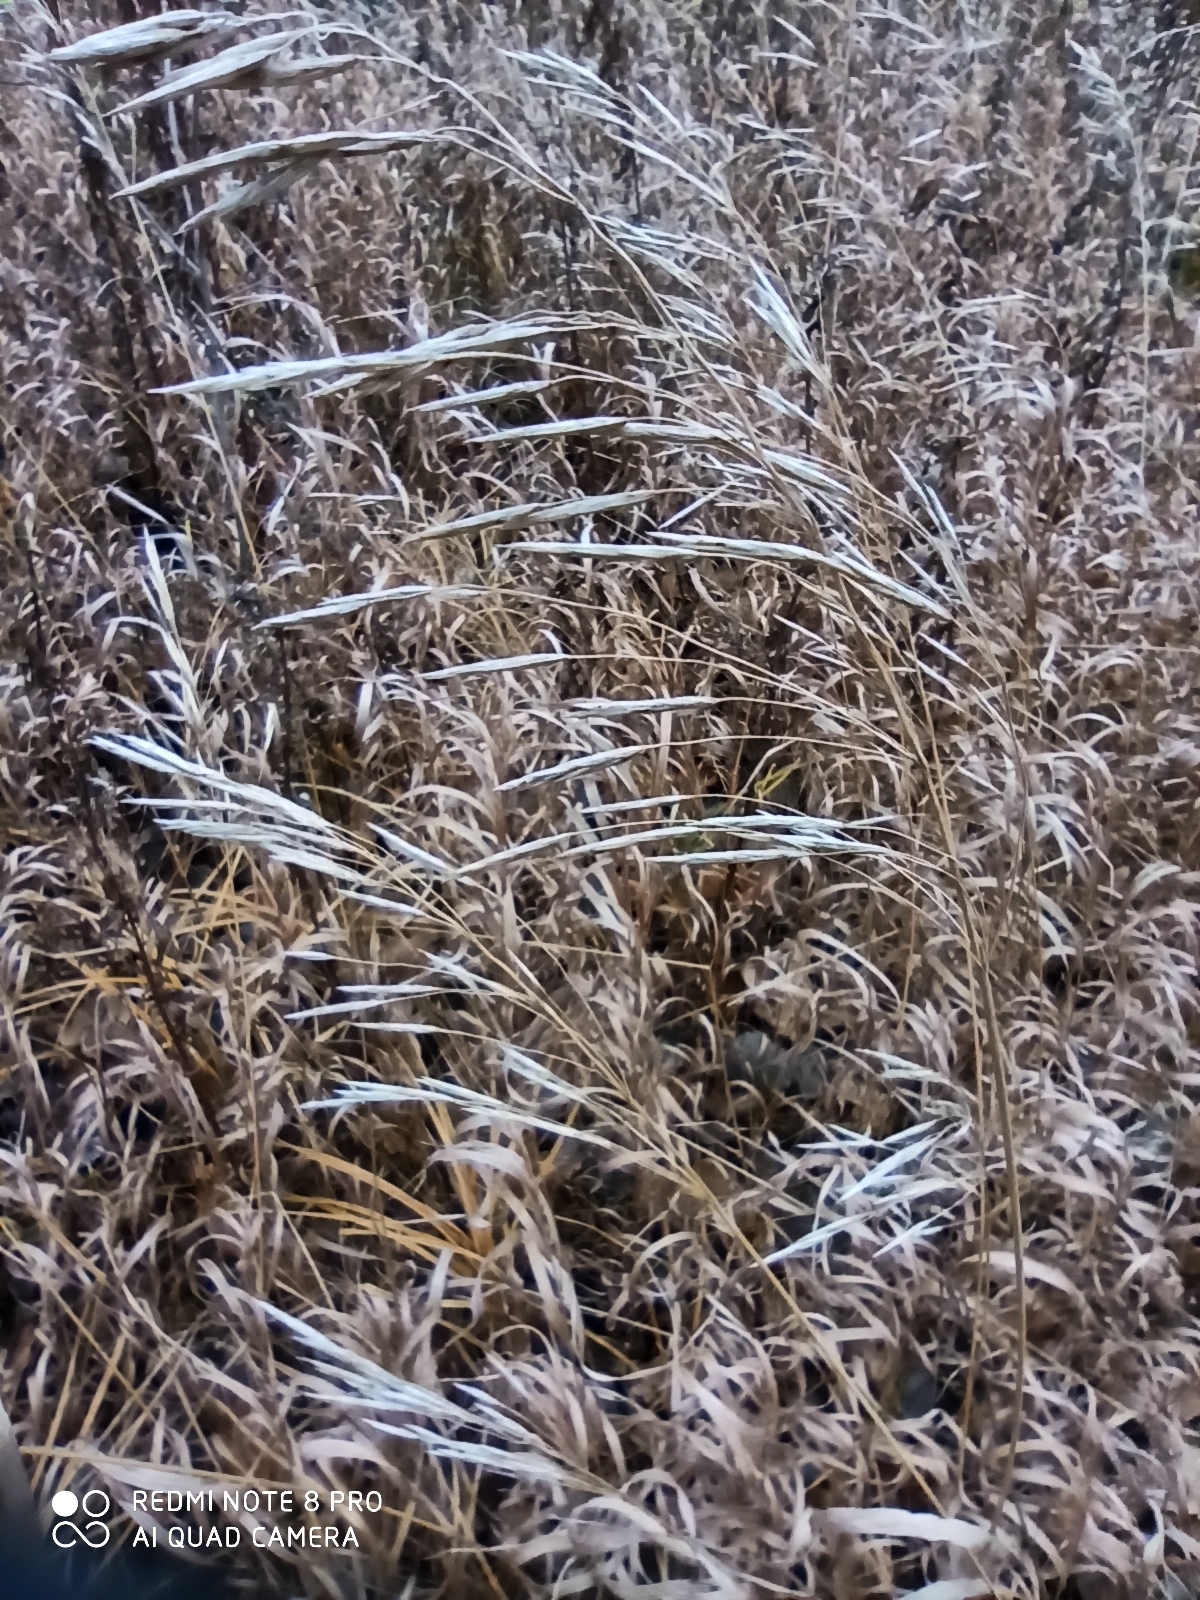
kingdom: Plantae
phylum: Tracheophyta
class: Liliopsida
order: Poales
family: Poaceae
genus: Bromus
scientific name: Bromus inermis
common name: Smooth brome
